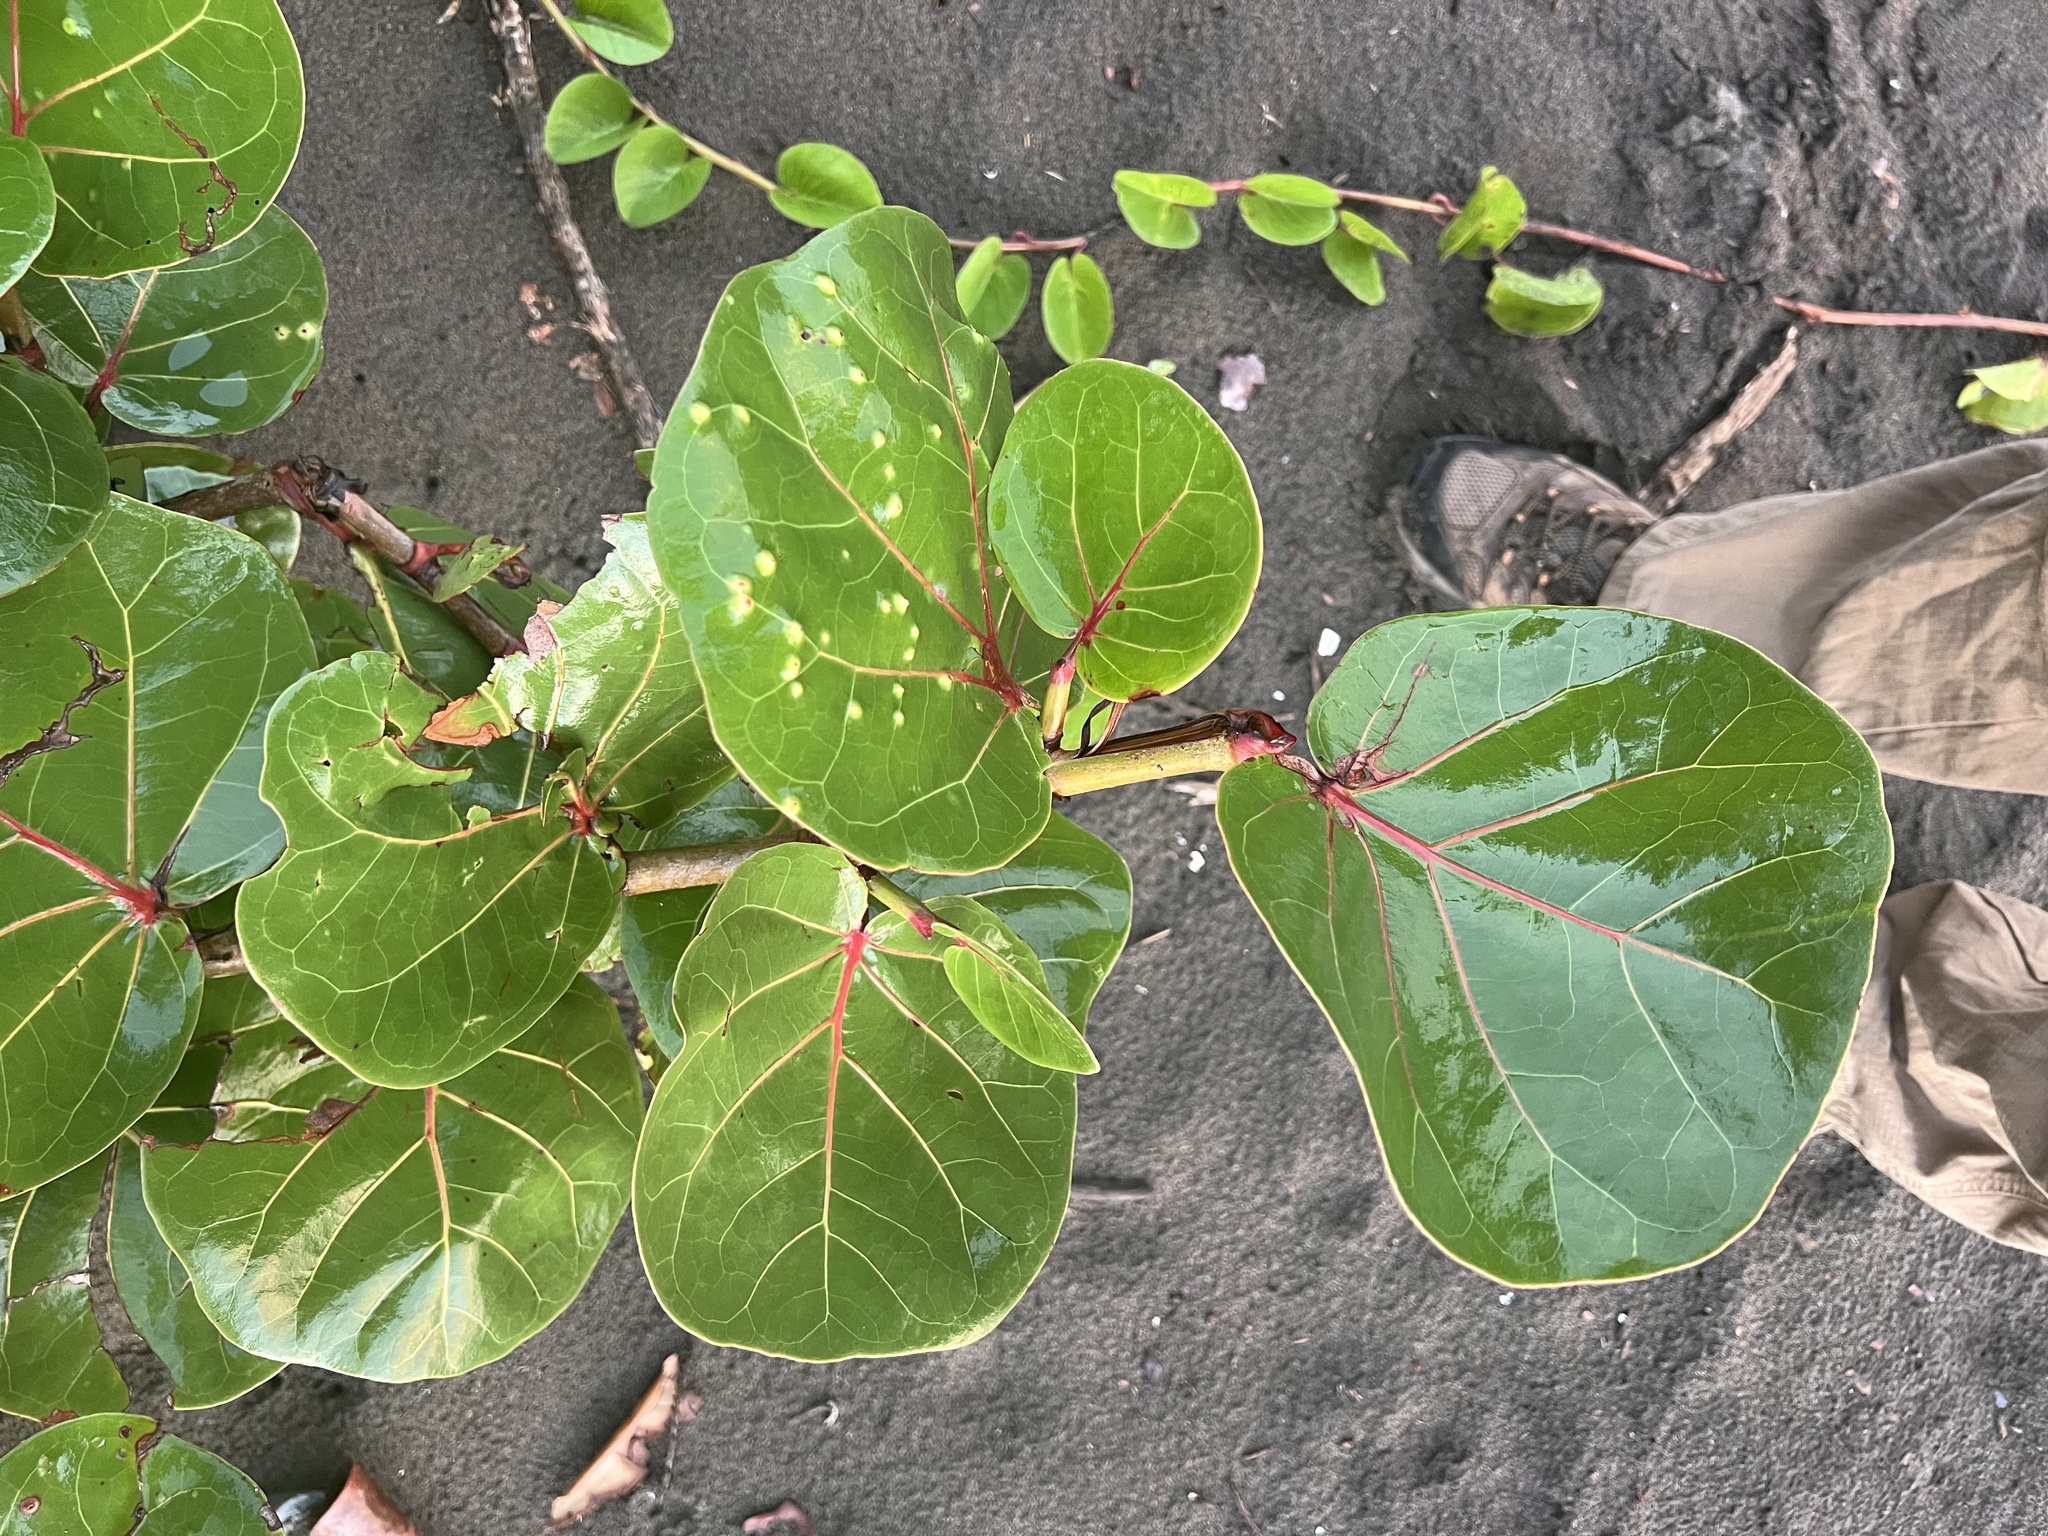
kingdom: Plantae
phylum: Tracheophyta
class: Magnoliopsida
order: Caryophyllales
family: Polygonaceae
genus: Coccoloba
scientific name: Coccoloba uvifera
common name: Seagrape
